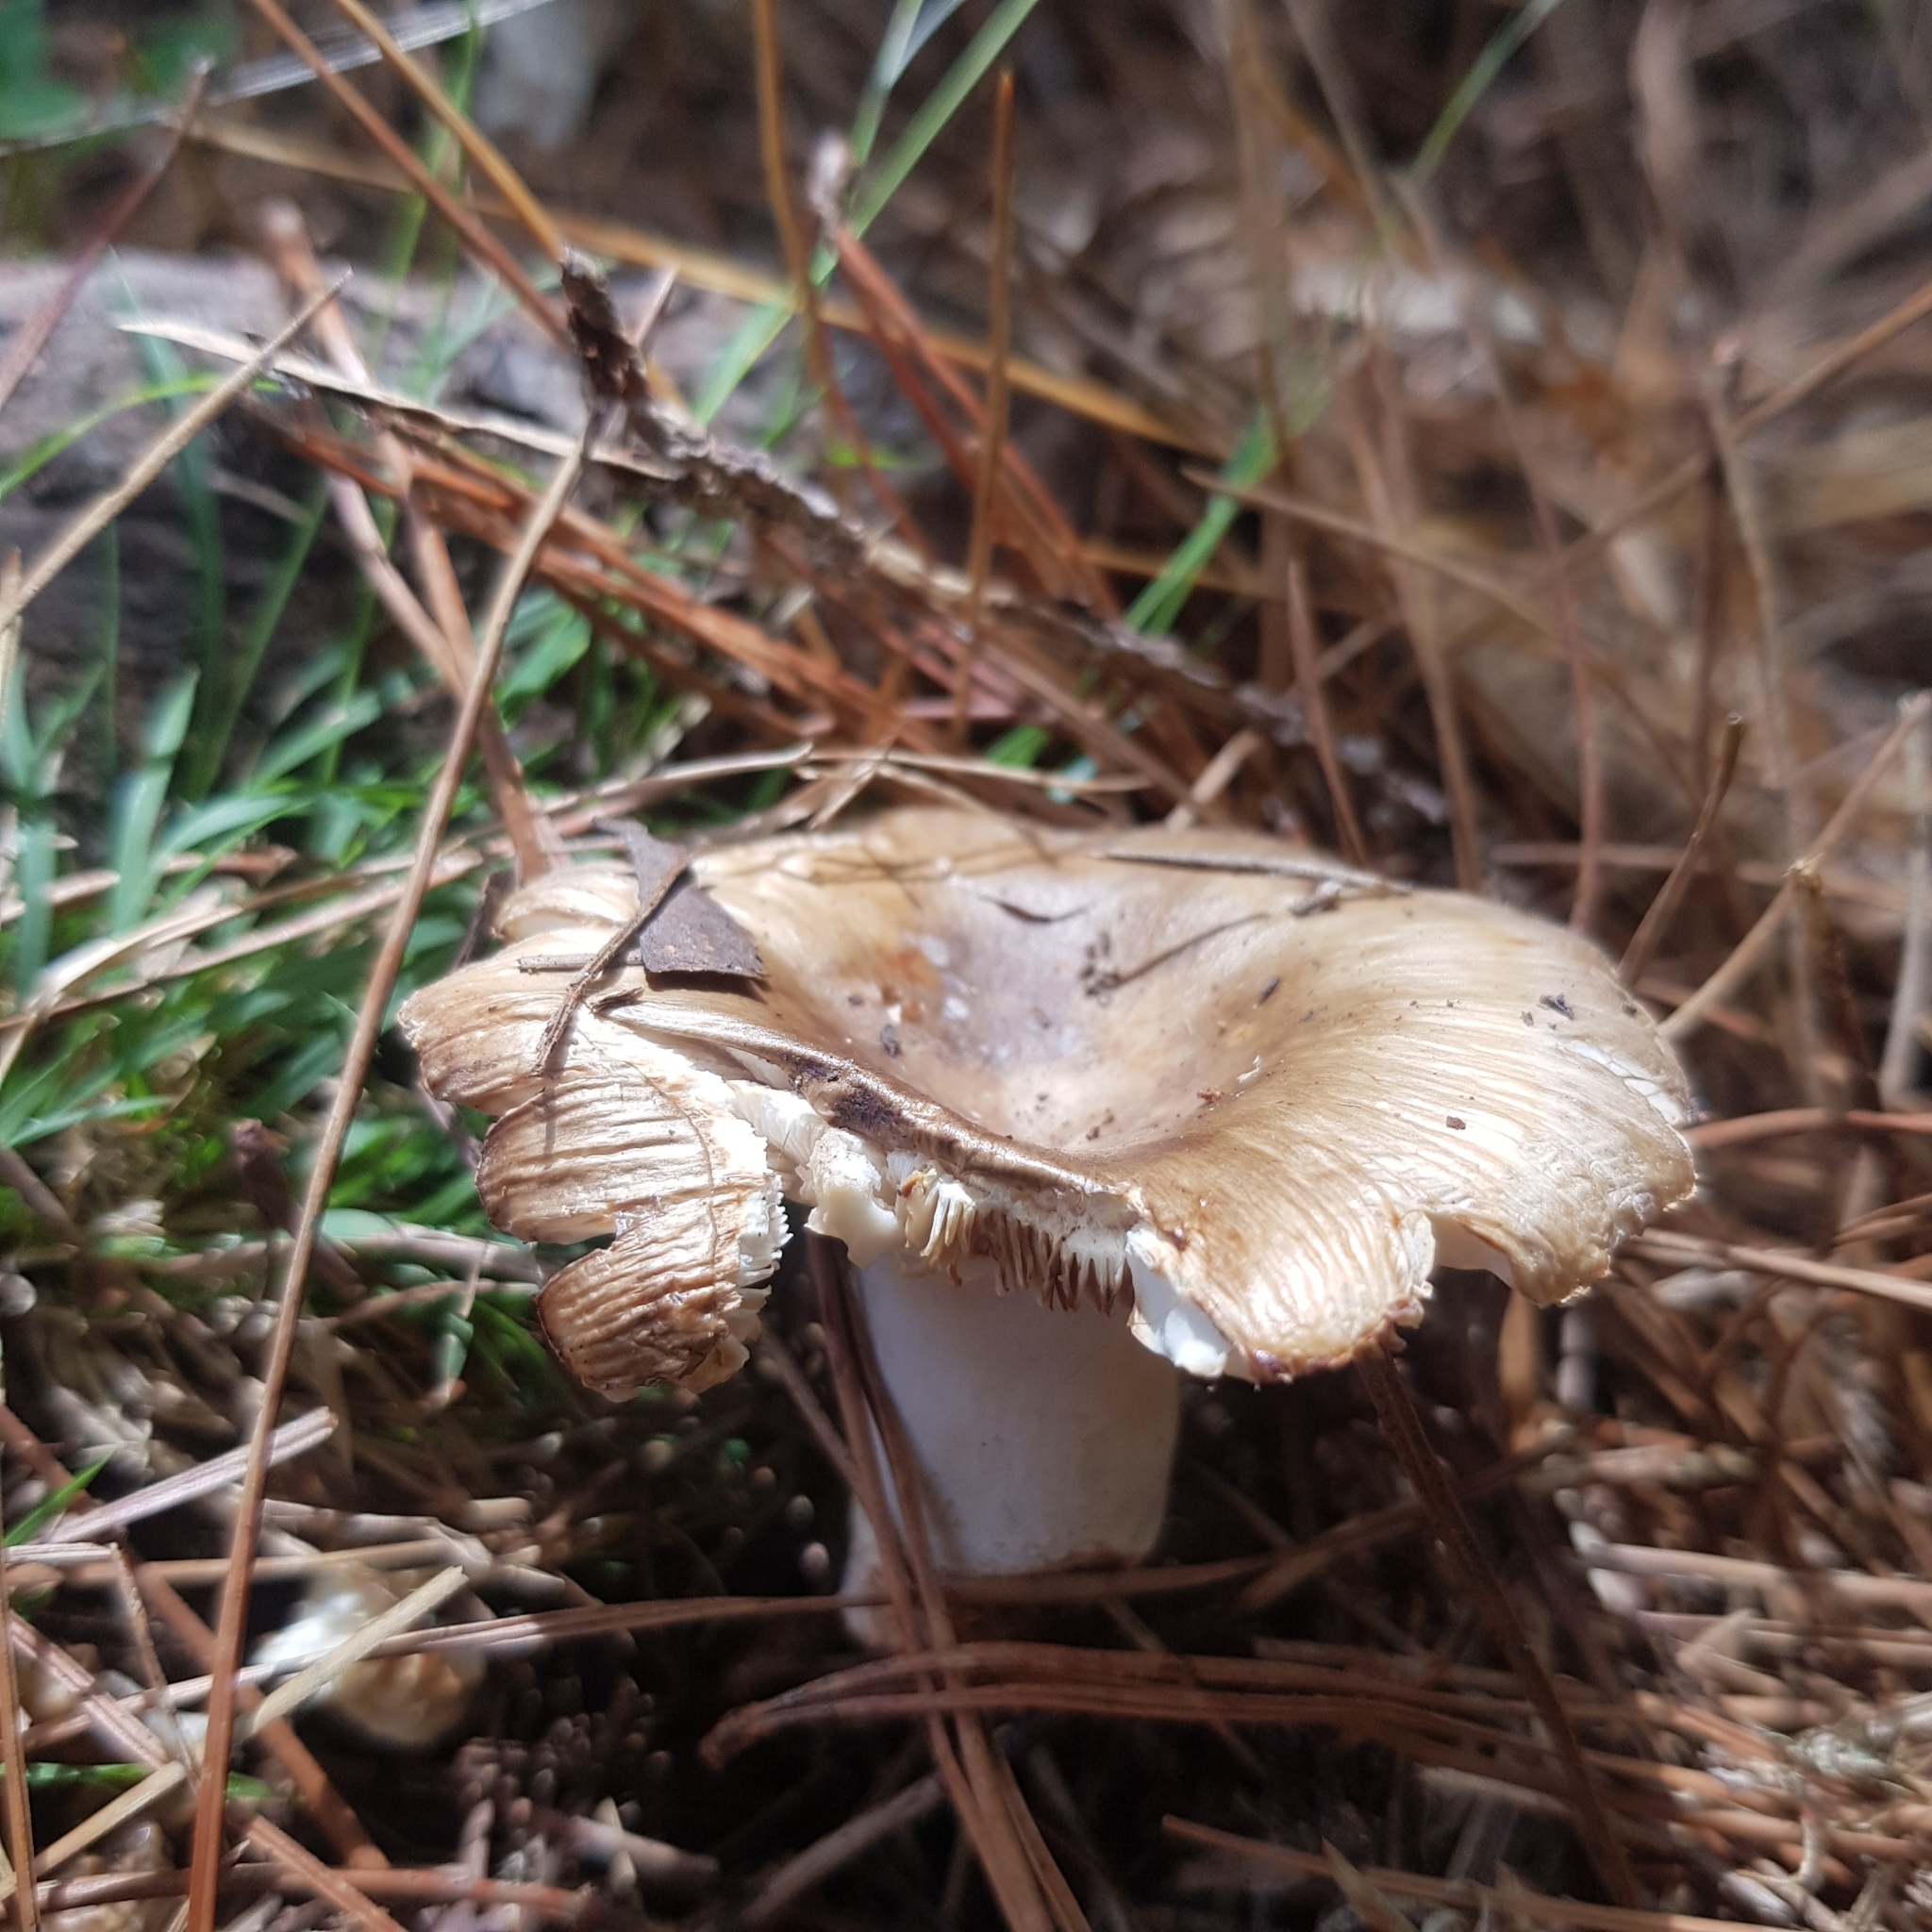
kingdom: Fungi
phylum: Basidiomycota
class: Agaricomycetes
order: Russulales
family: Russulaceae
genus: Russula
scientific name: Russula amoenolens
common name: Camembert brittlegill
